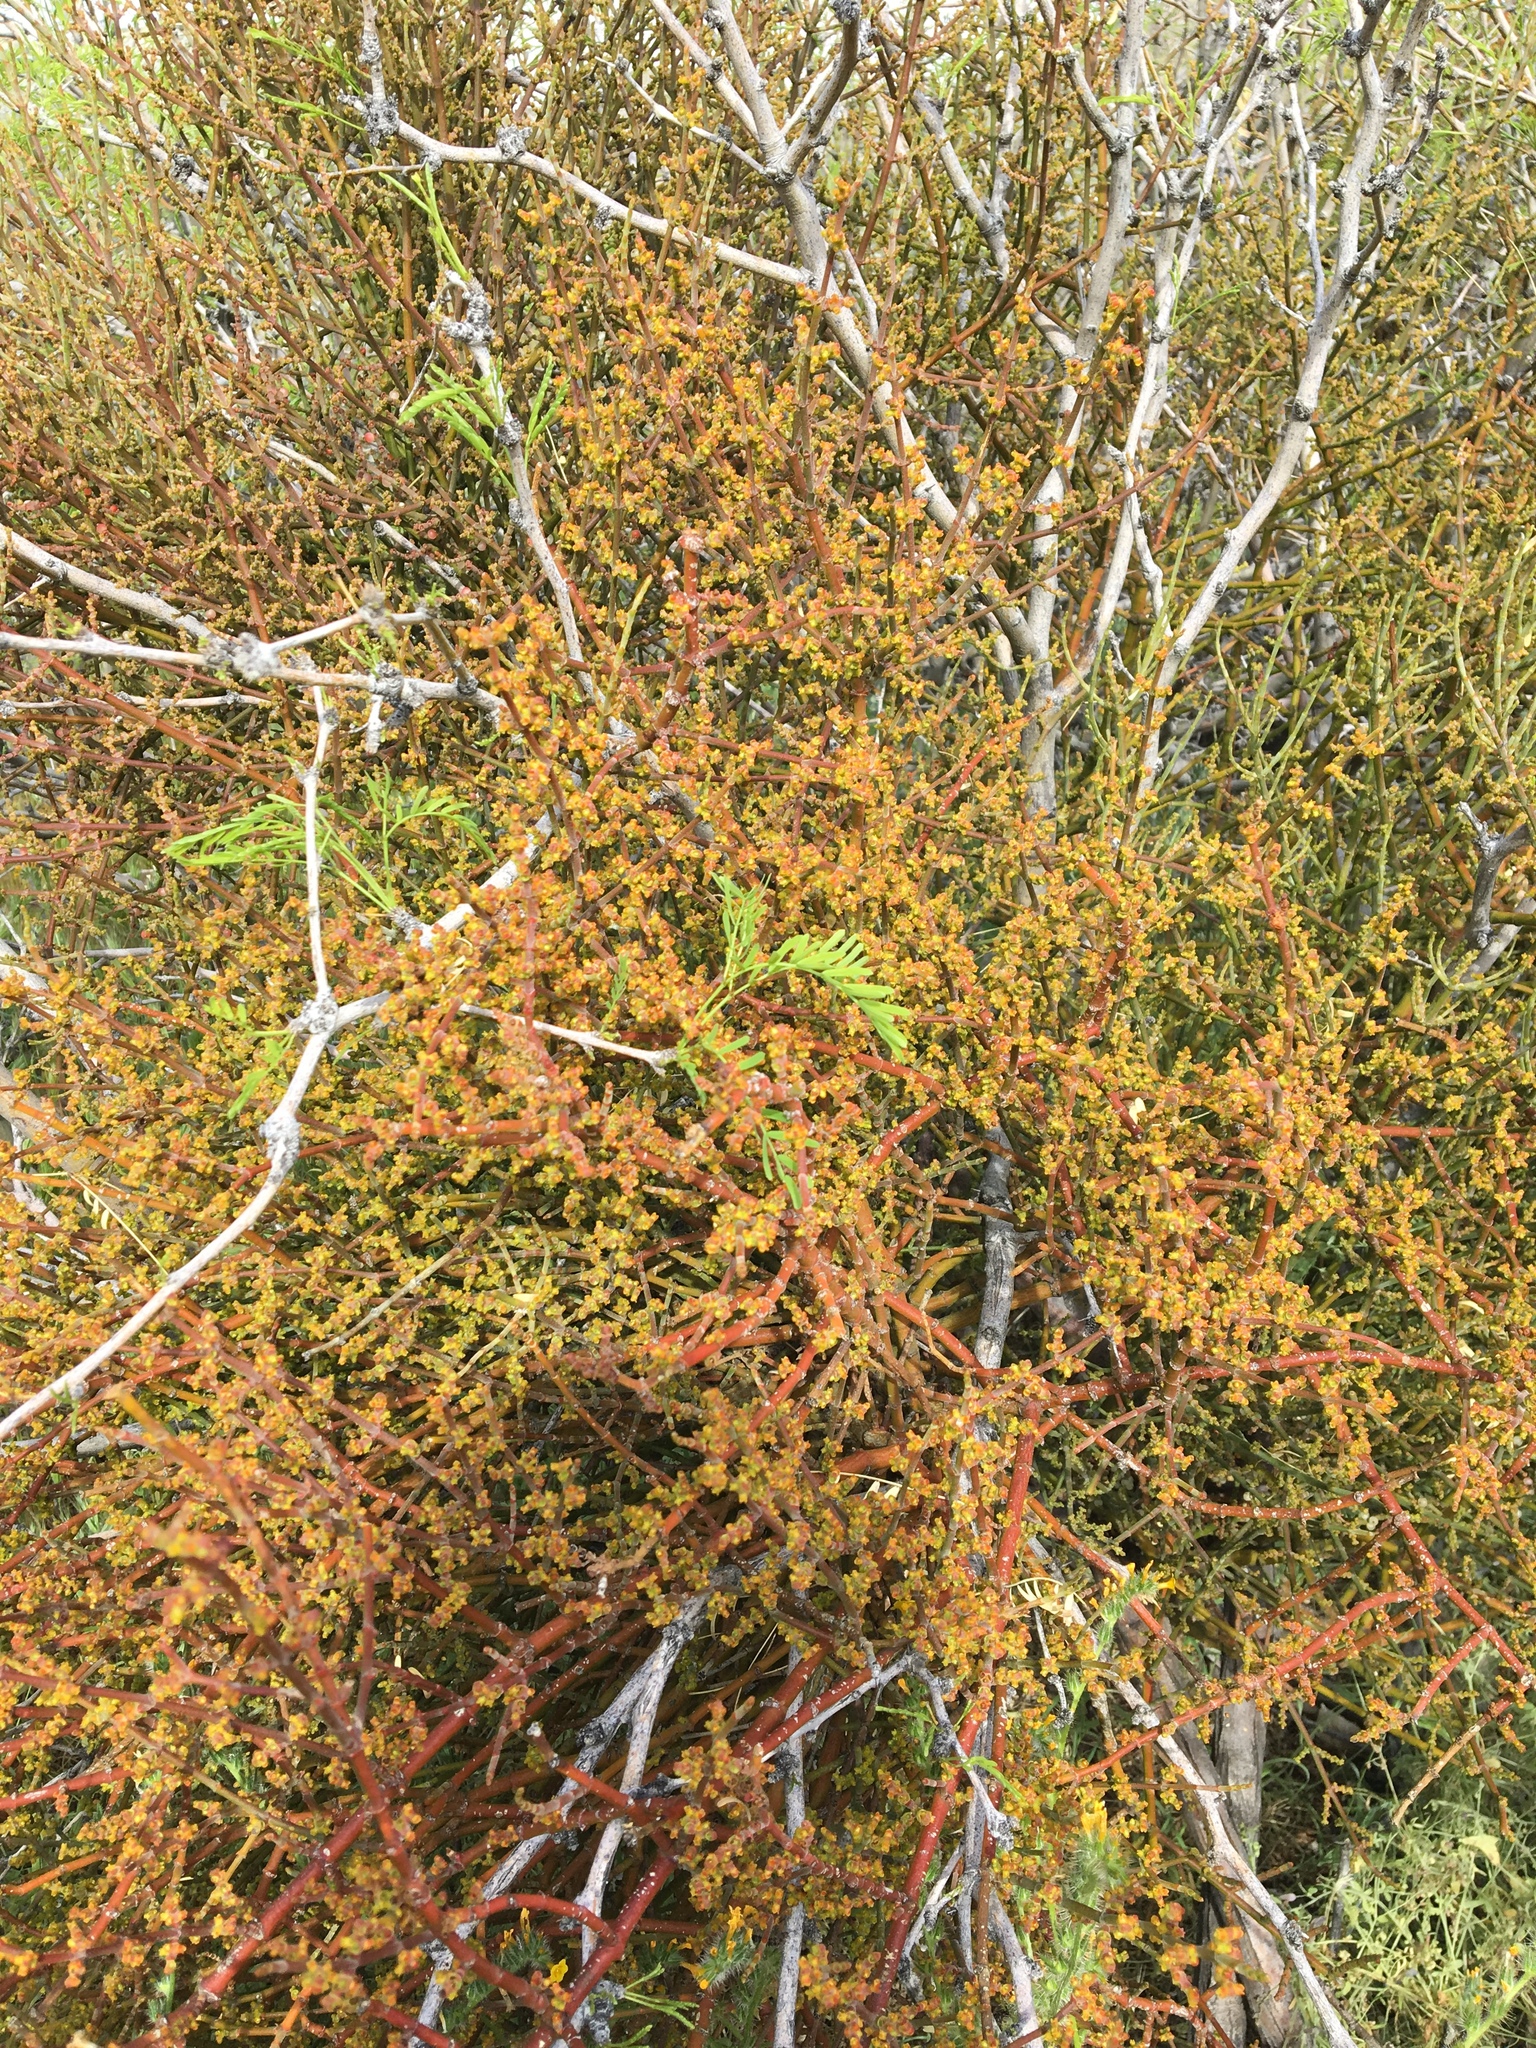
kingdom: Plantae
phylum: Tracheophyta
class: Magnoliopsida
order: Santalales
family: Viscaceae
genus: Phoradendron
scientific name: Phoradendron californicum
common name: Acacia mistletoe
